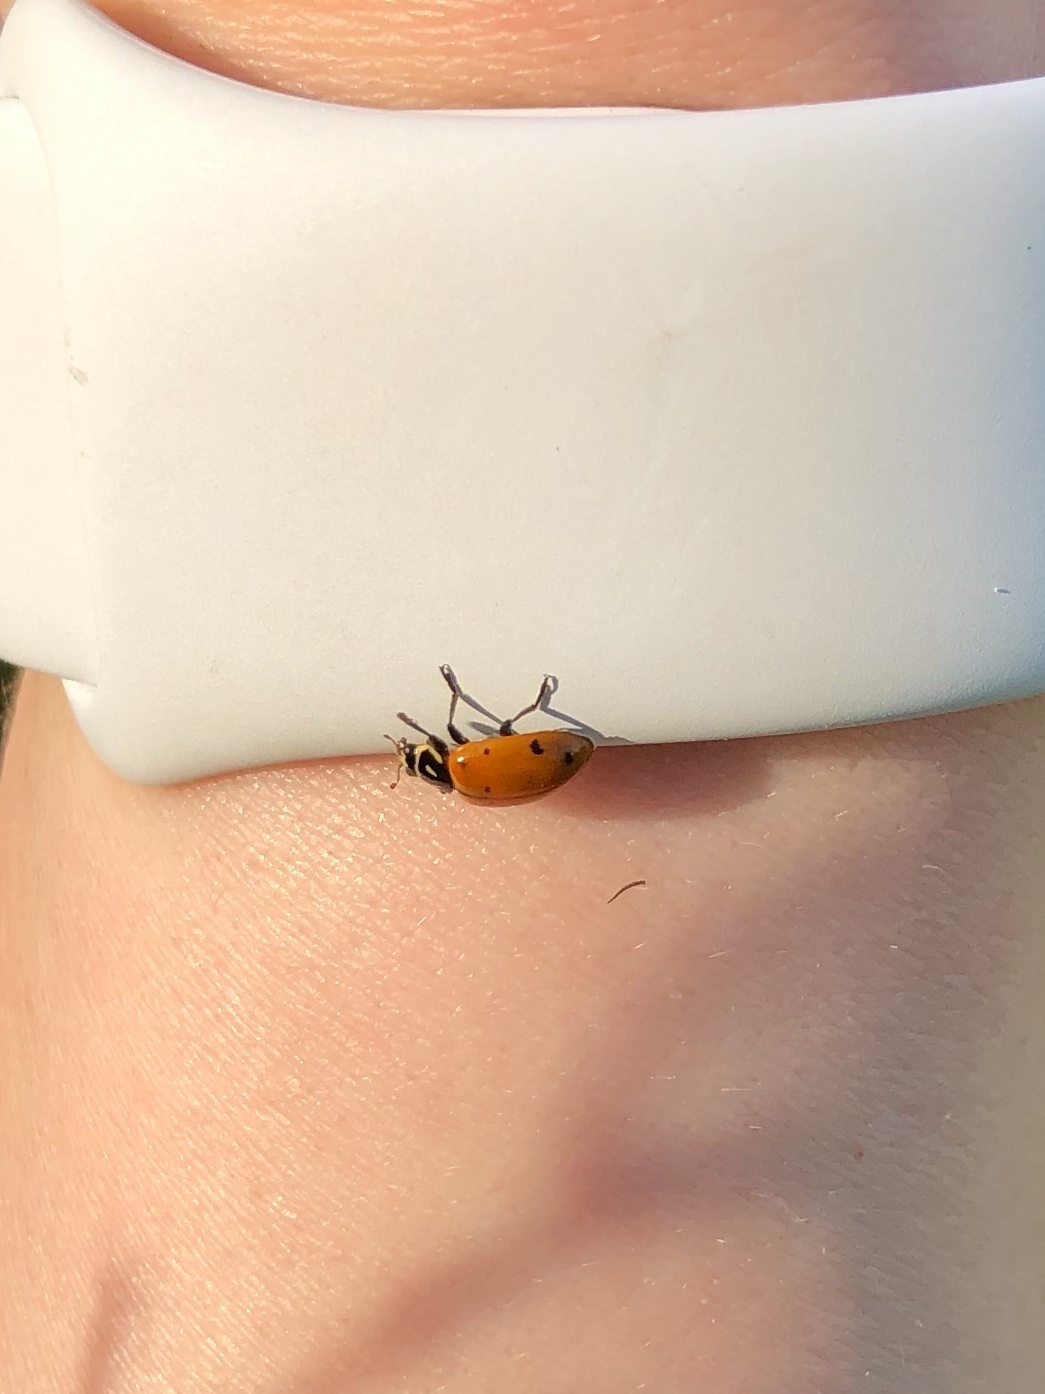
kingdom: Animalia
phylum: Arthropoda
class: Insecta
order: Coleoptera
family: Coccinellidae
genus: Hippodamia
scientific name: Hippodamia convergens
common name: Convergent lady beetle
